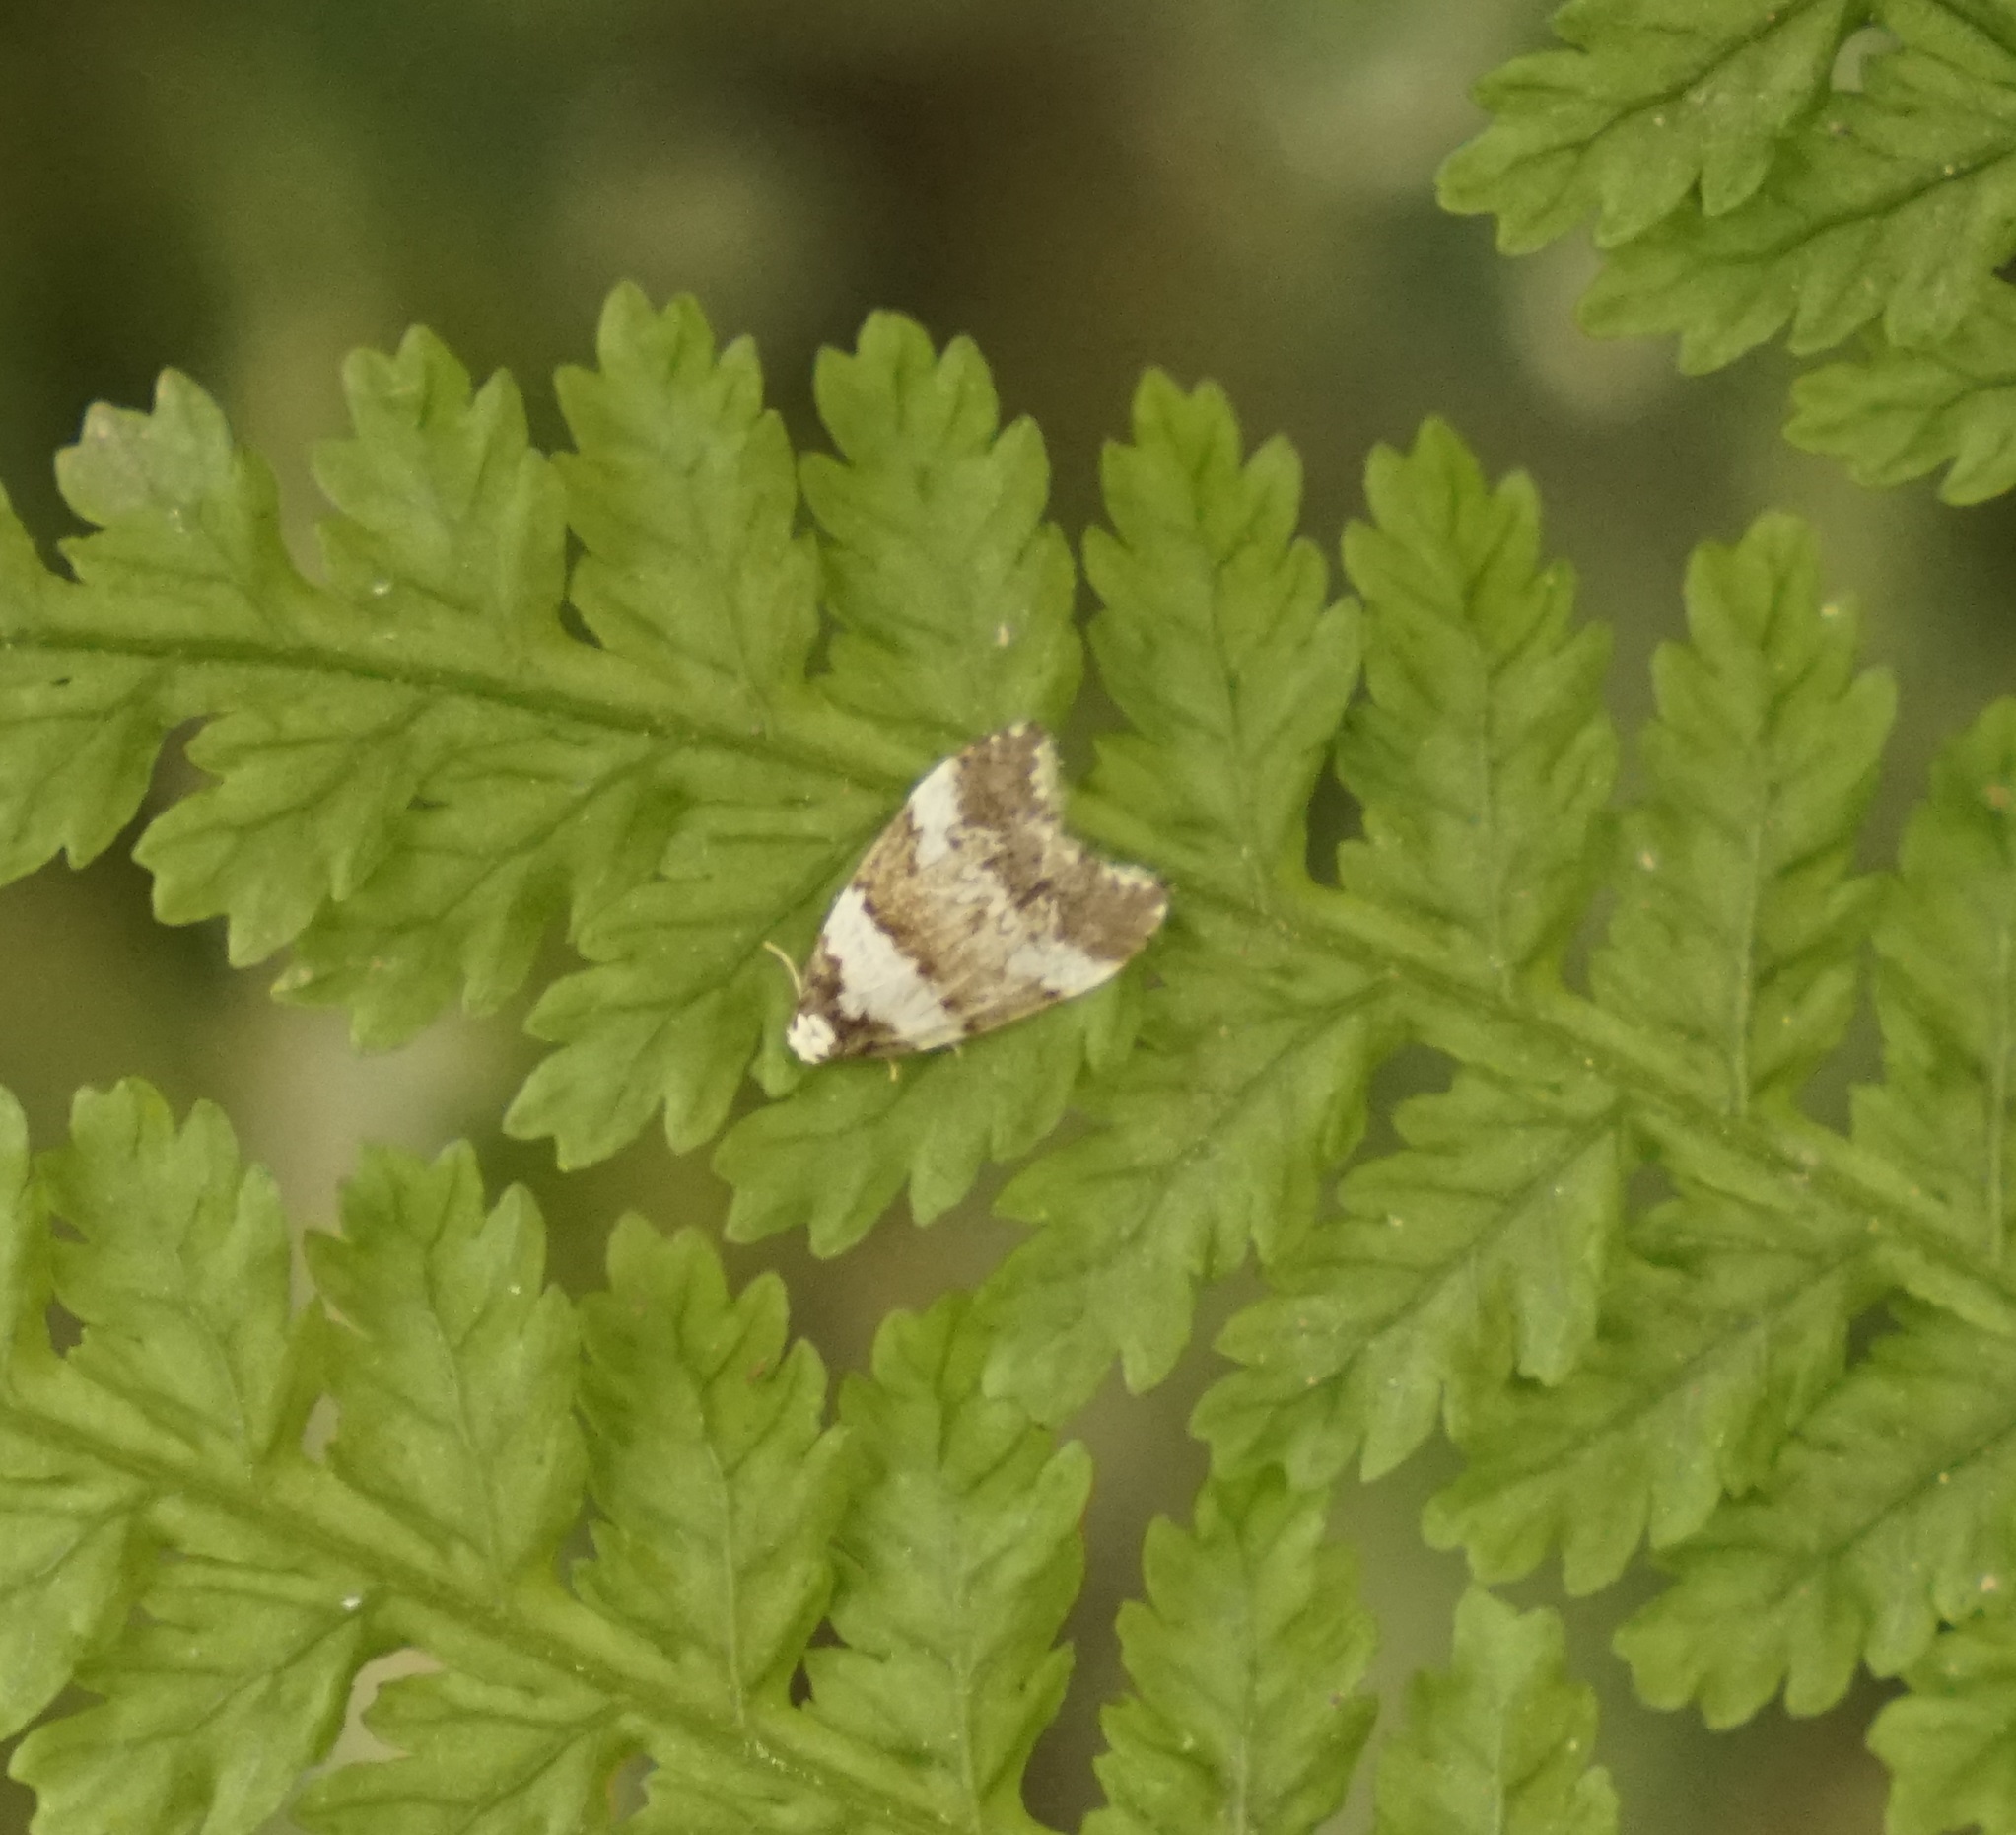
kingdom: Animalia
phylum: Arthropoda
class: Insecta
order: Lepidoptera
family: Erebidae
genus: Halone
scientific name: Halone sejuncta
